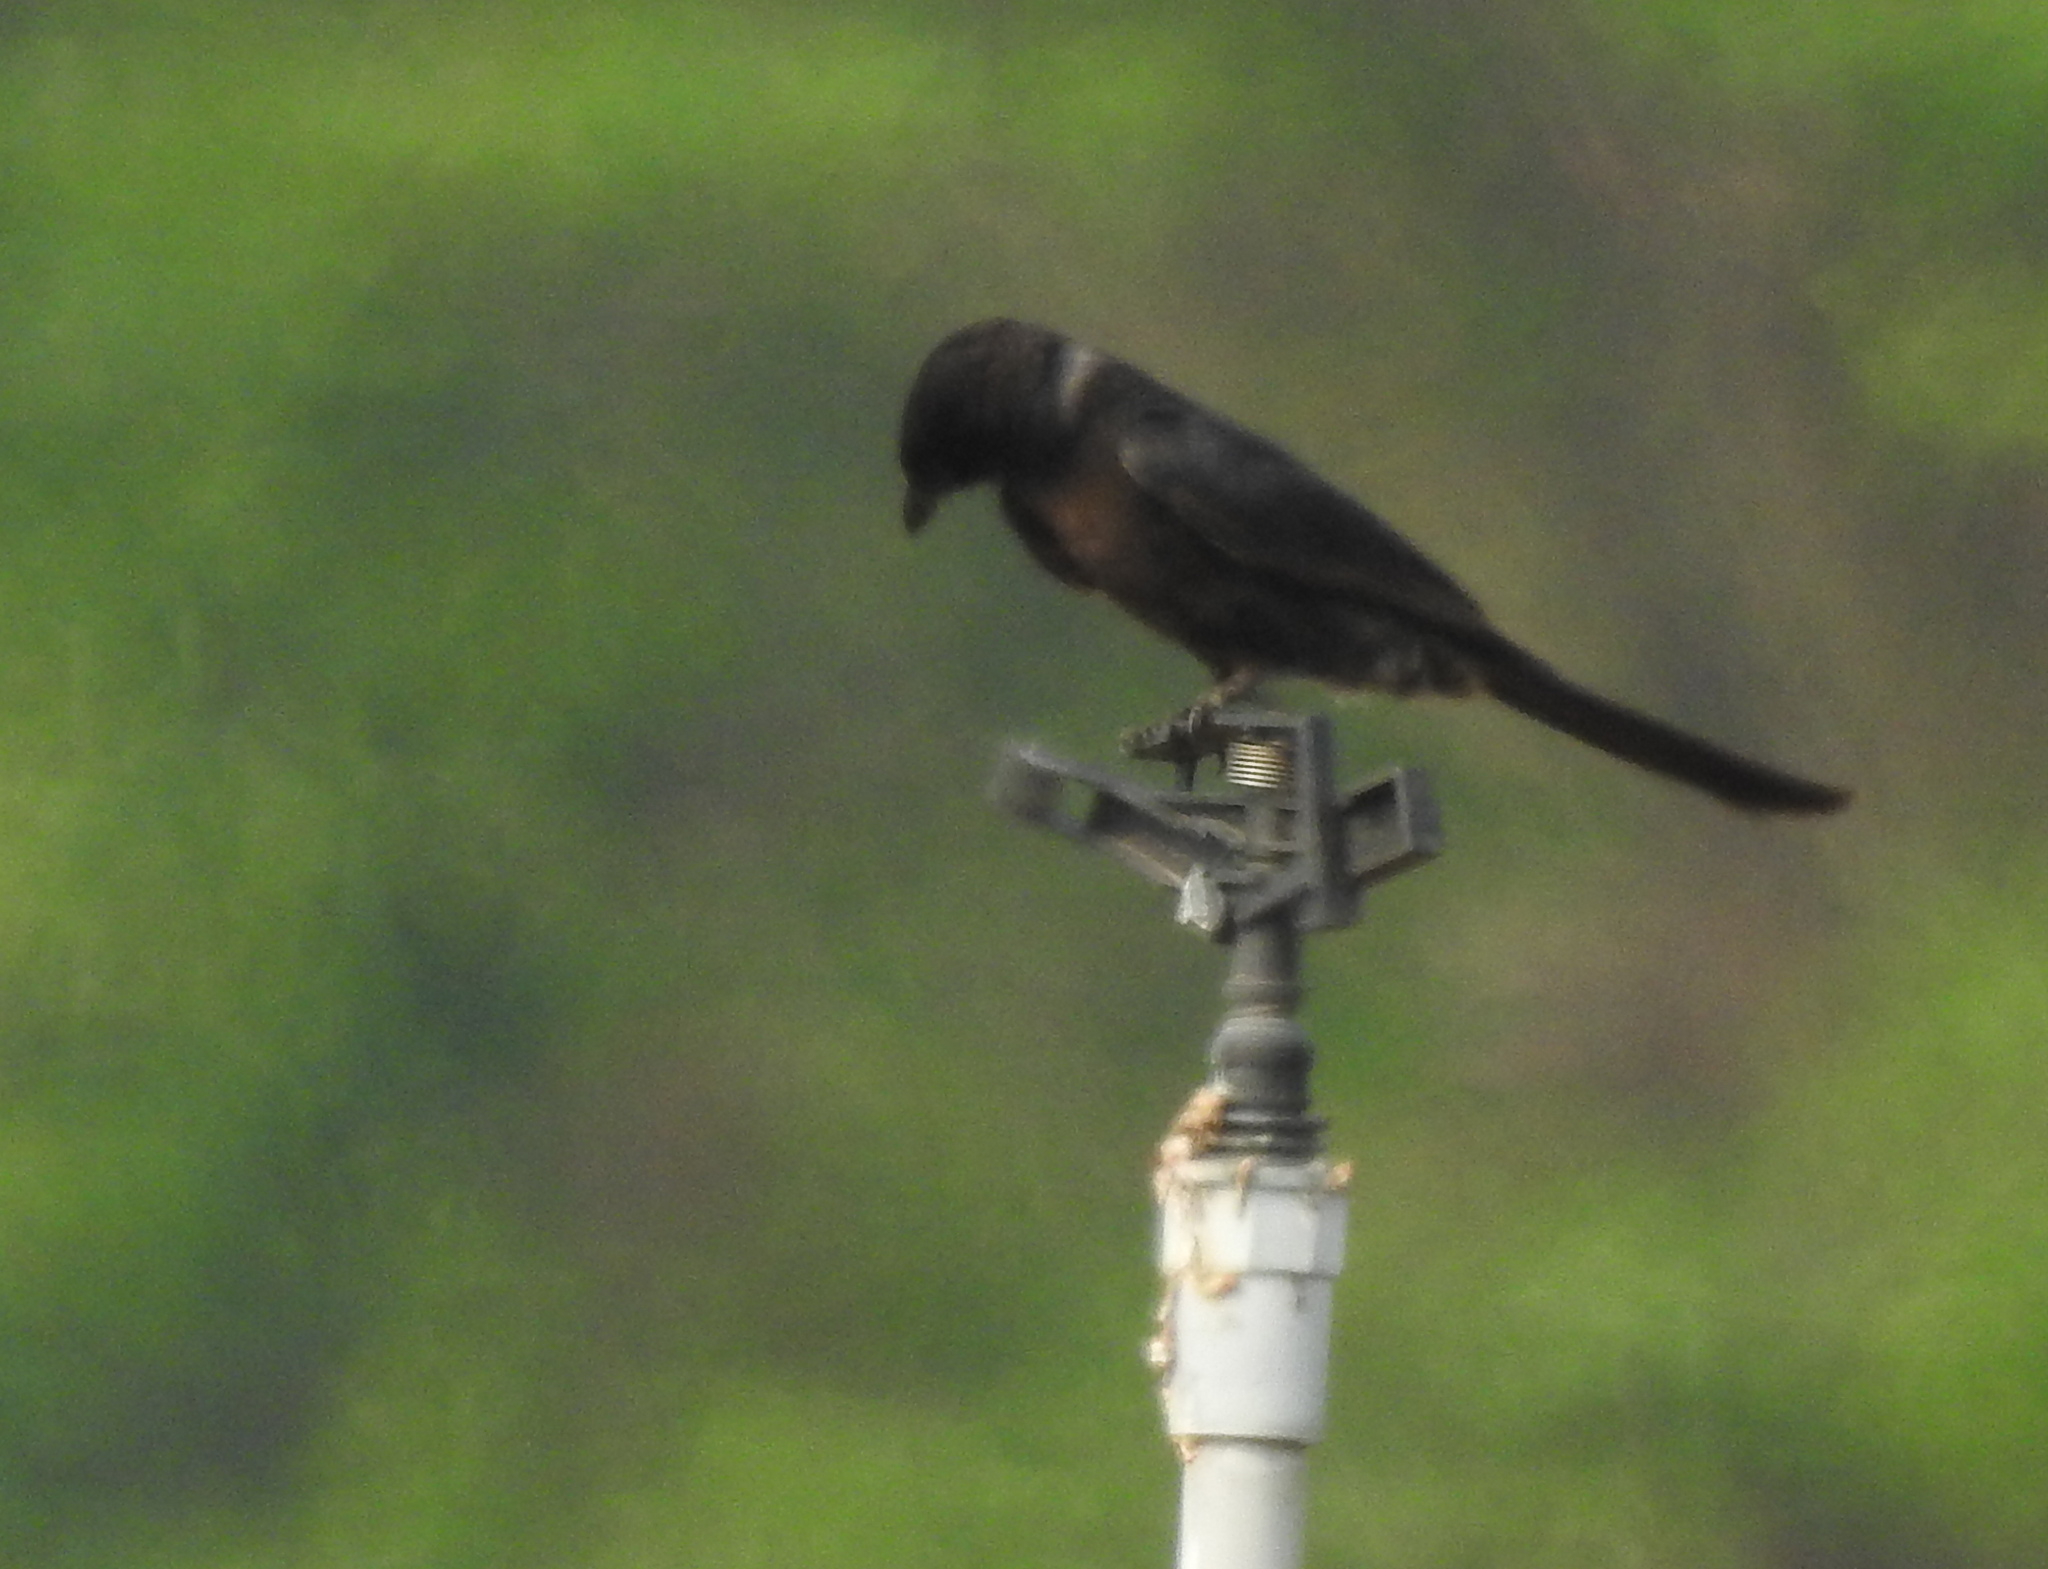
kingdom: Animalia
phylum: Chordata
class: Aves
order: Passeriformes
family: Dicruridae
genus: Dicrurus
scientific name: Dicrurus macrocercus
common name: Black drongo
